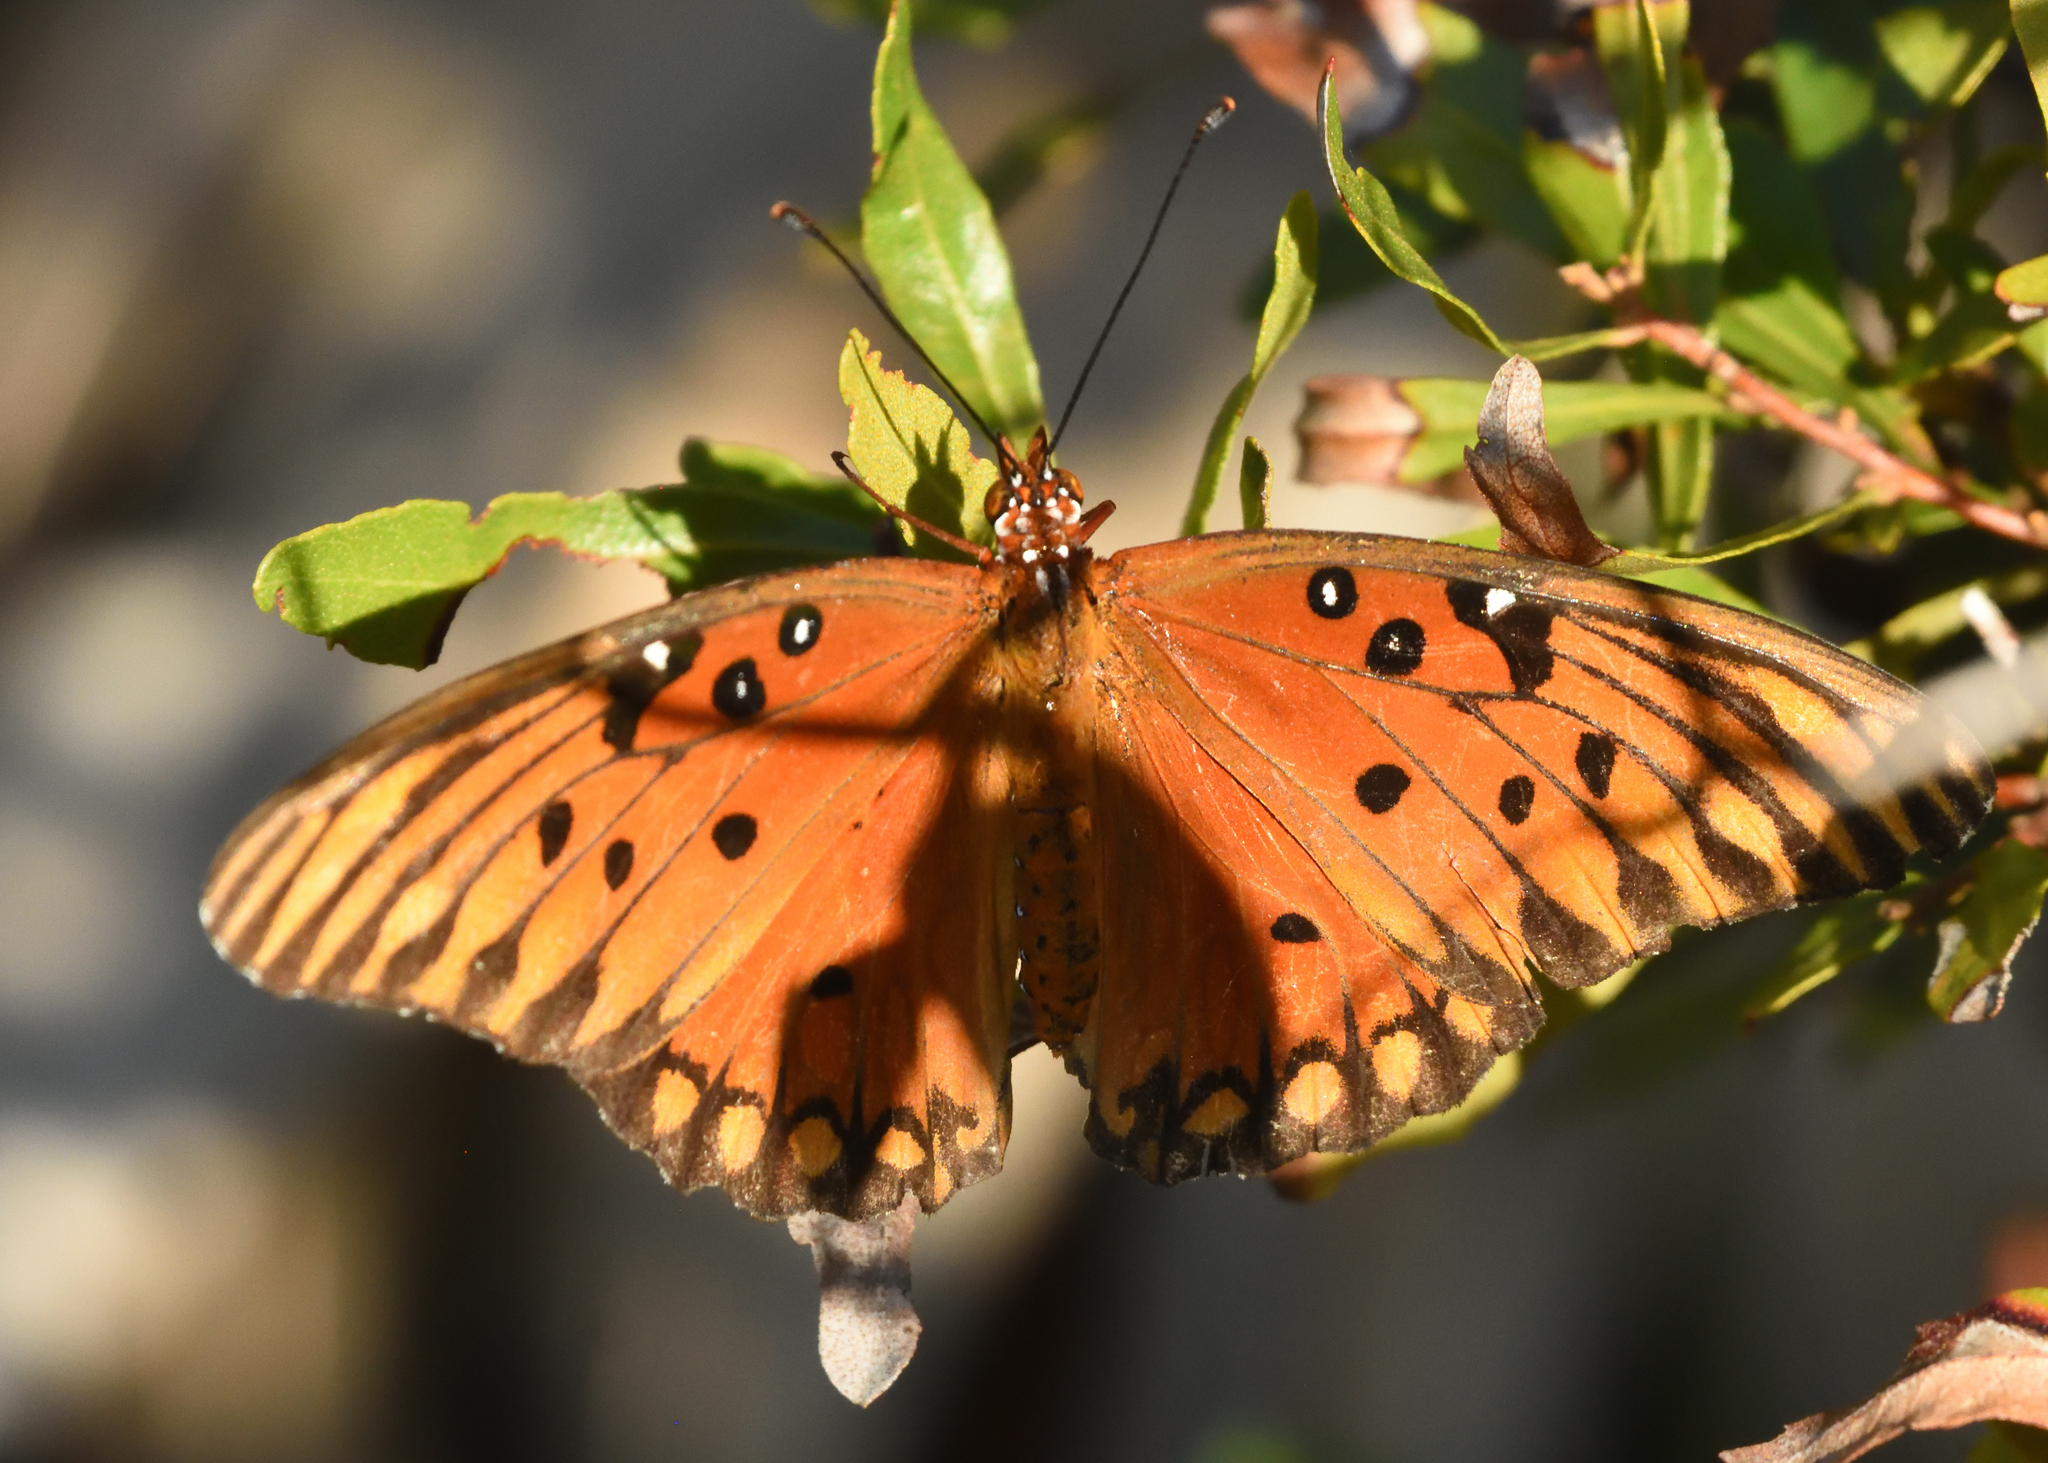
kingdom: Animalia
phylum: Arthropoda
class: Insecta
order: Lepidoptera
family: Nymphalidae
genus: Dione
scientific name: Dione vanillae
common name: Gulf fritillary
